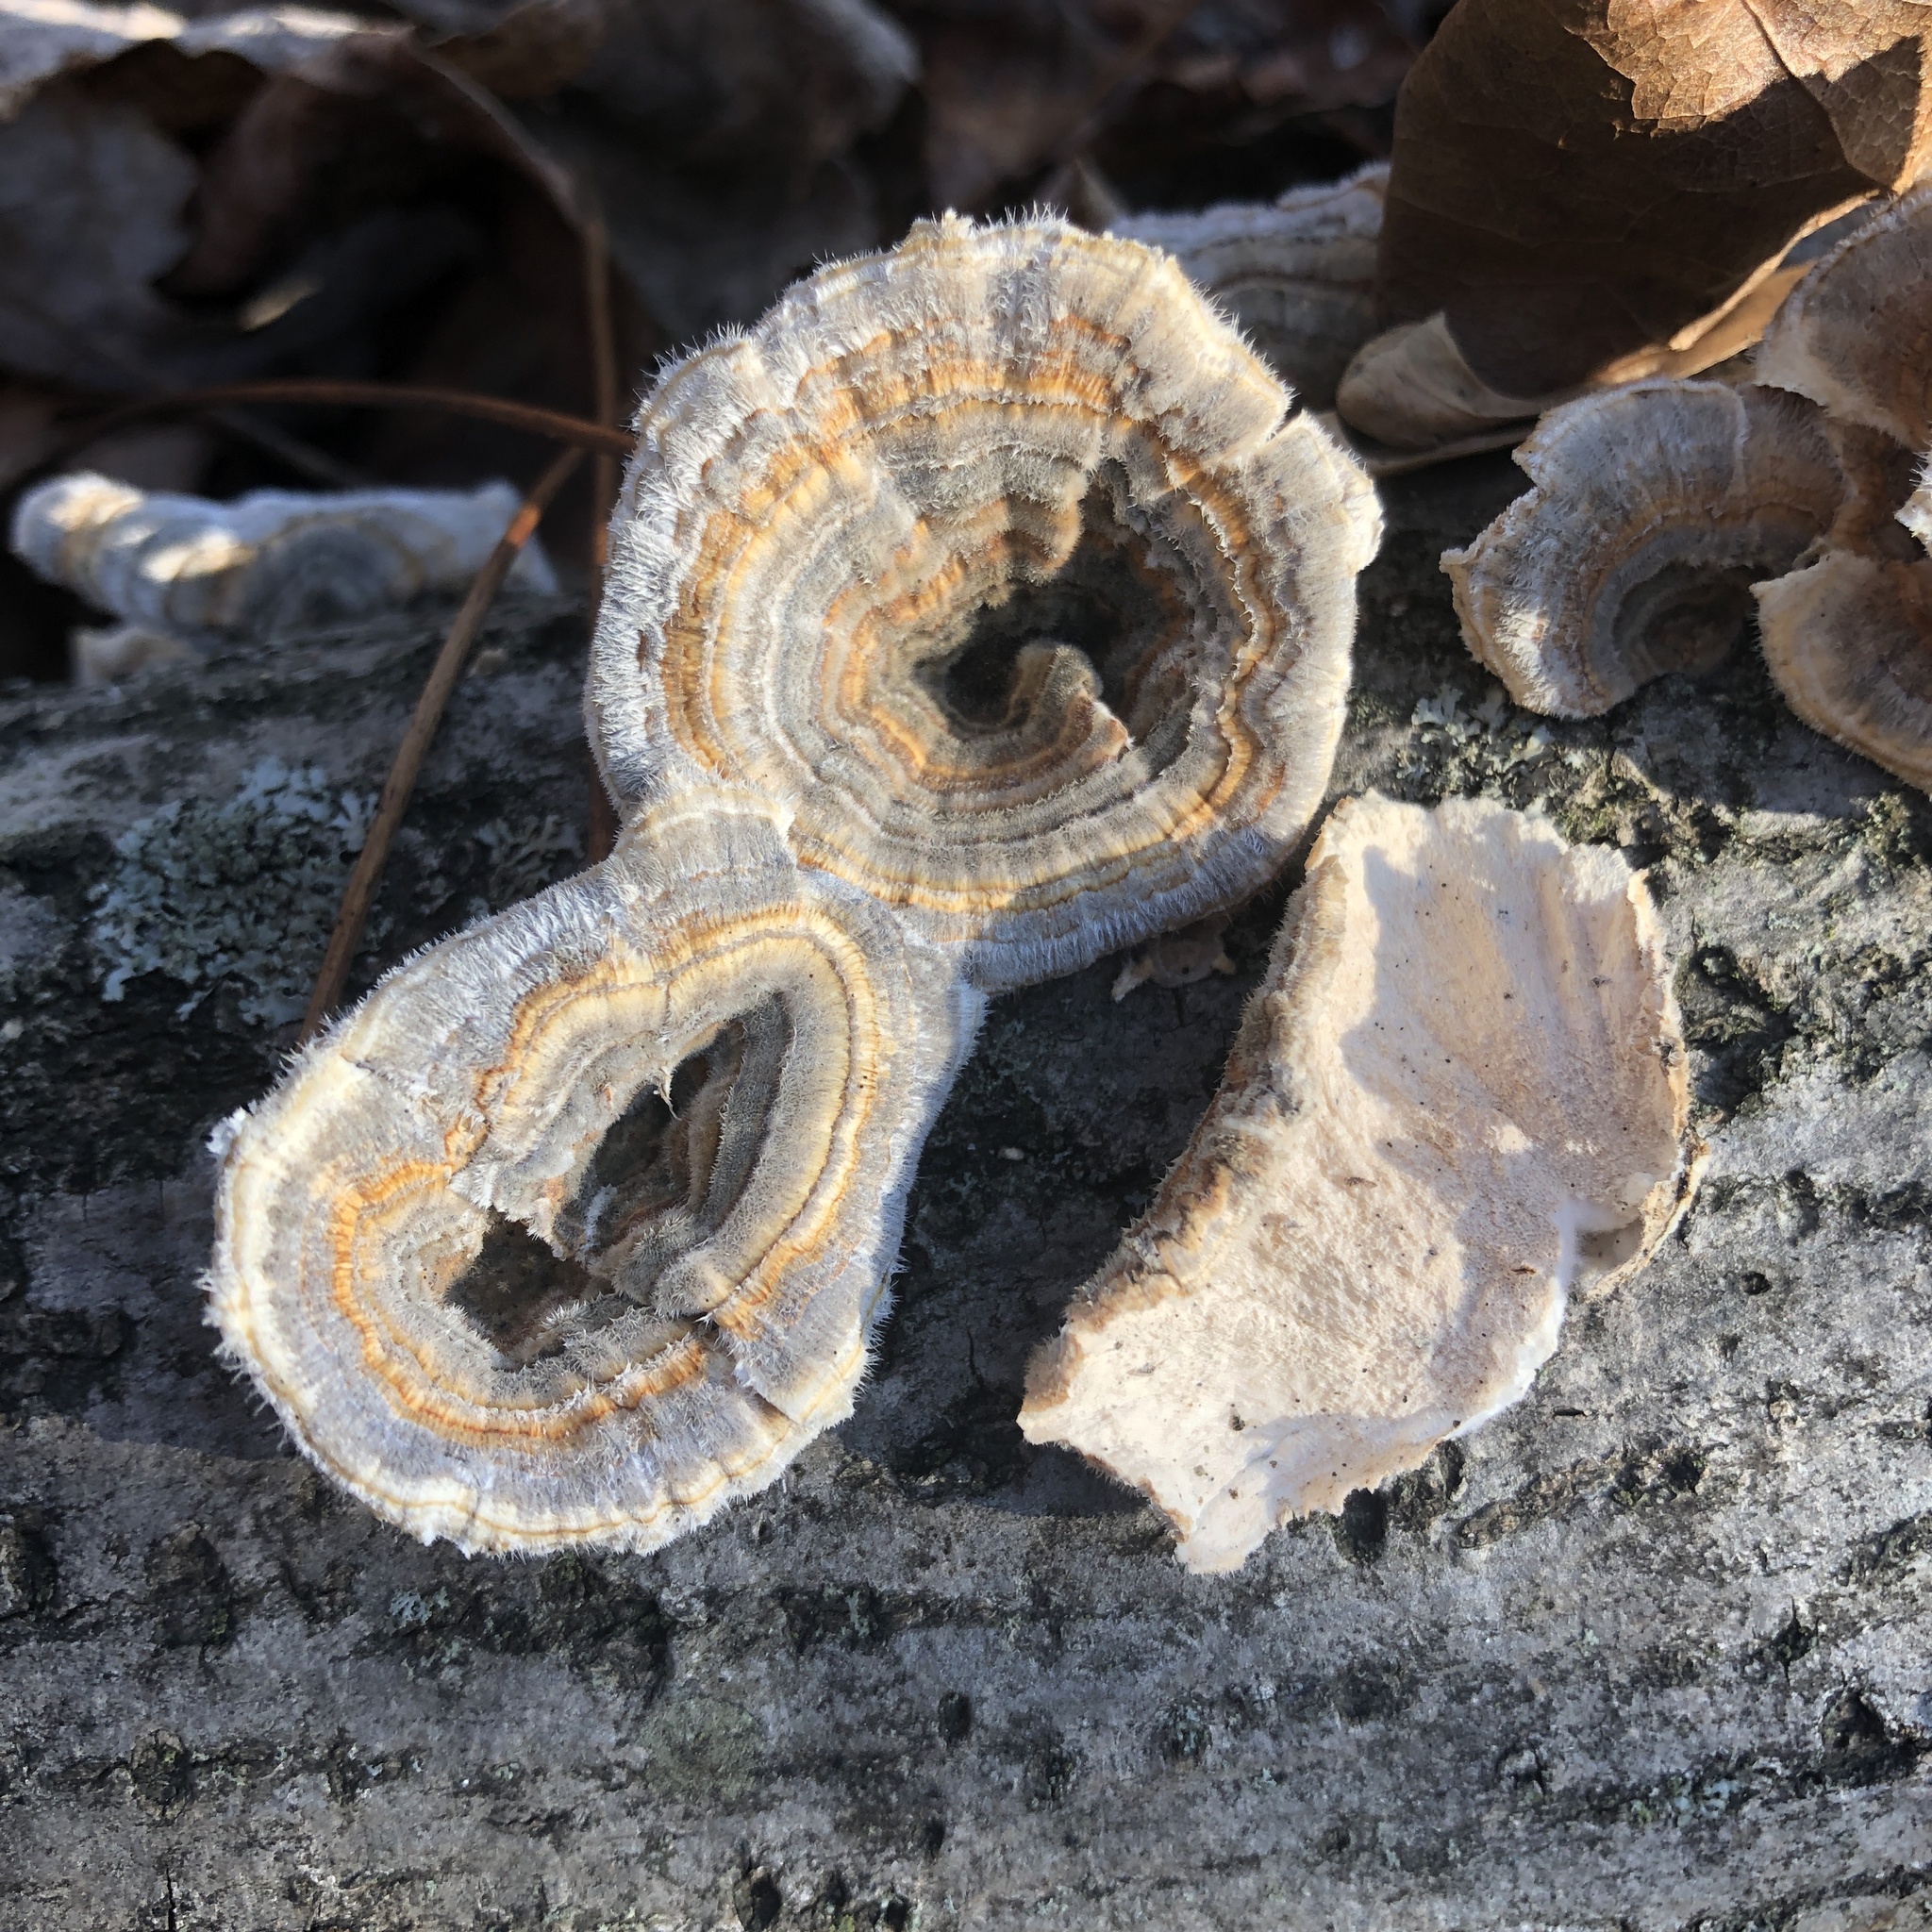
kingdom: Fungi
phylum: Basidiomycota
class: Agaricomycetes
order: Polyporales
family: Polyporaceae
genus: Trametes
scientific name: Trametes versicolor
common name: Turkeytail
